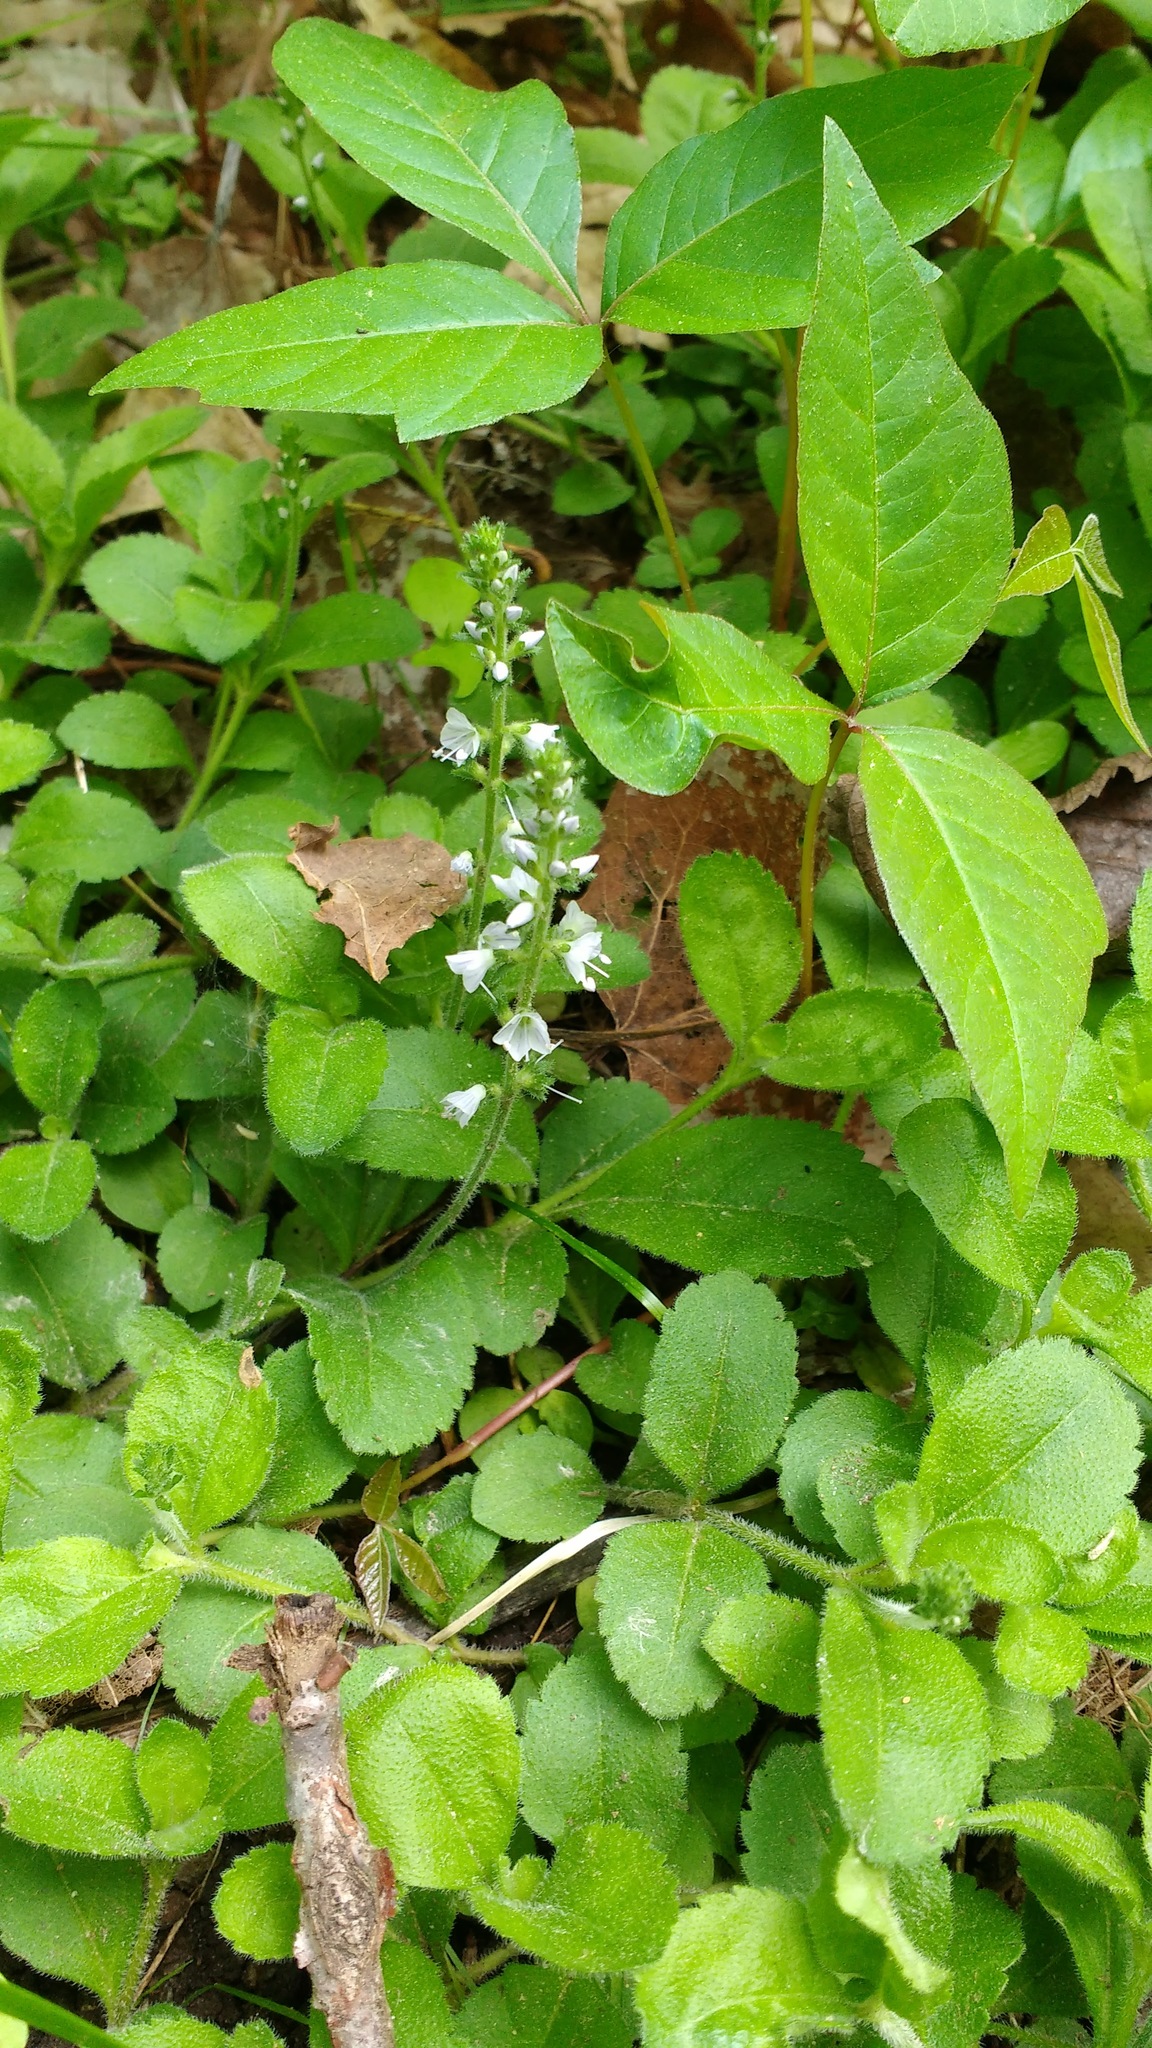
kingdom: Plantae
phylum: Tracheophyta
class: Magnoliopsida
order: Lamiales
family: Plantaginaceae
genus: Veronica
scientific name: Veronica officinalis
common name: Common speedwell
